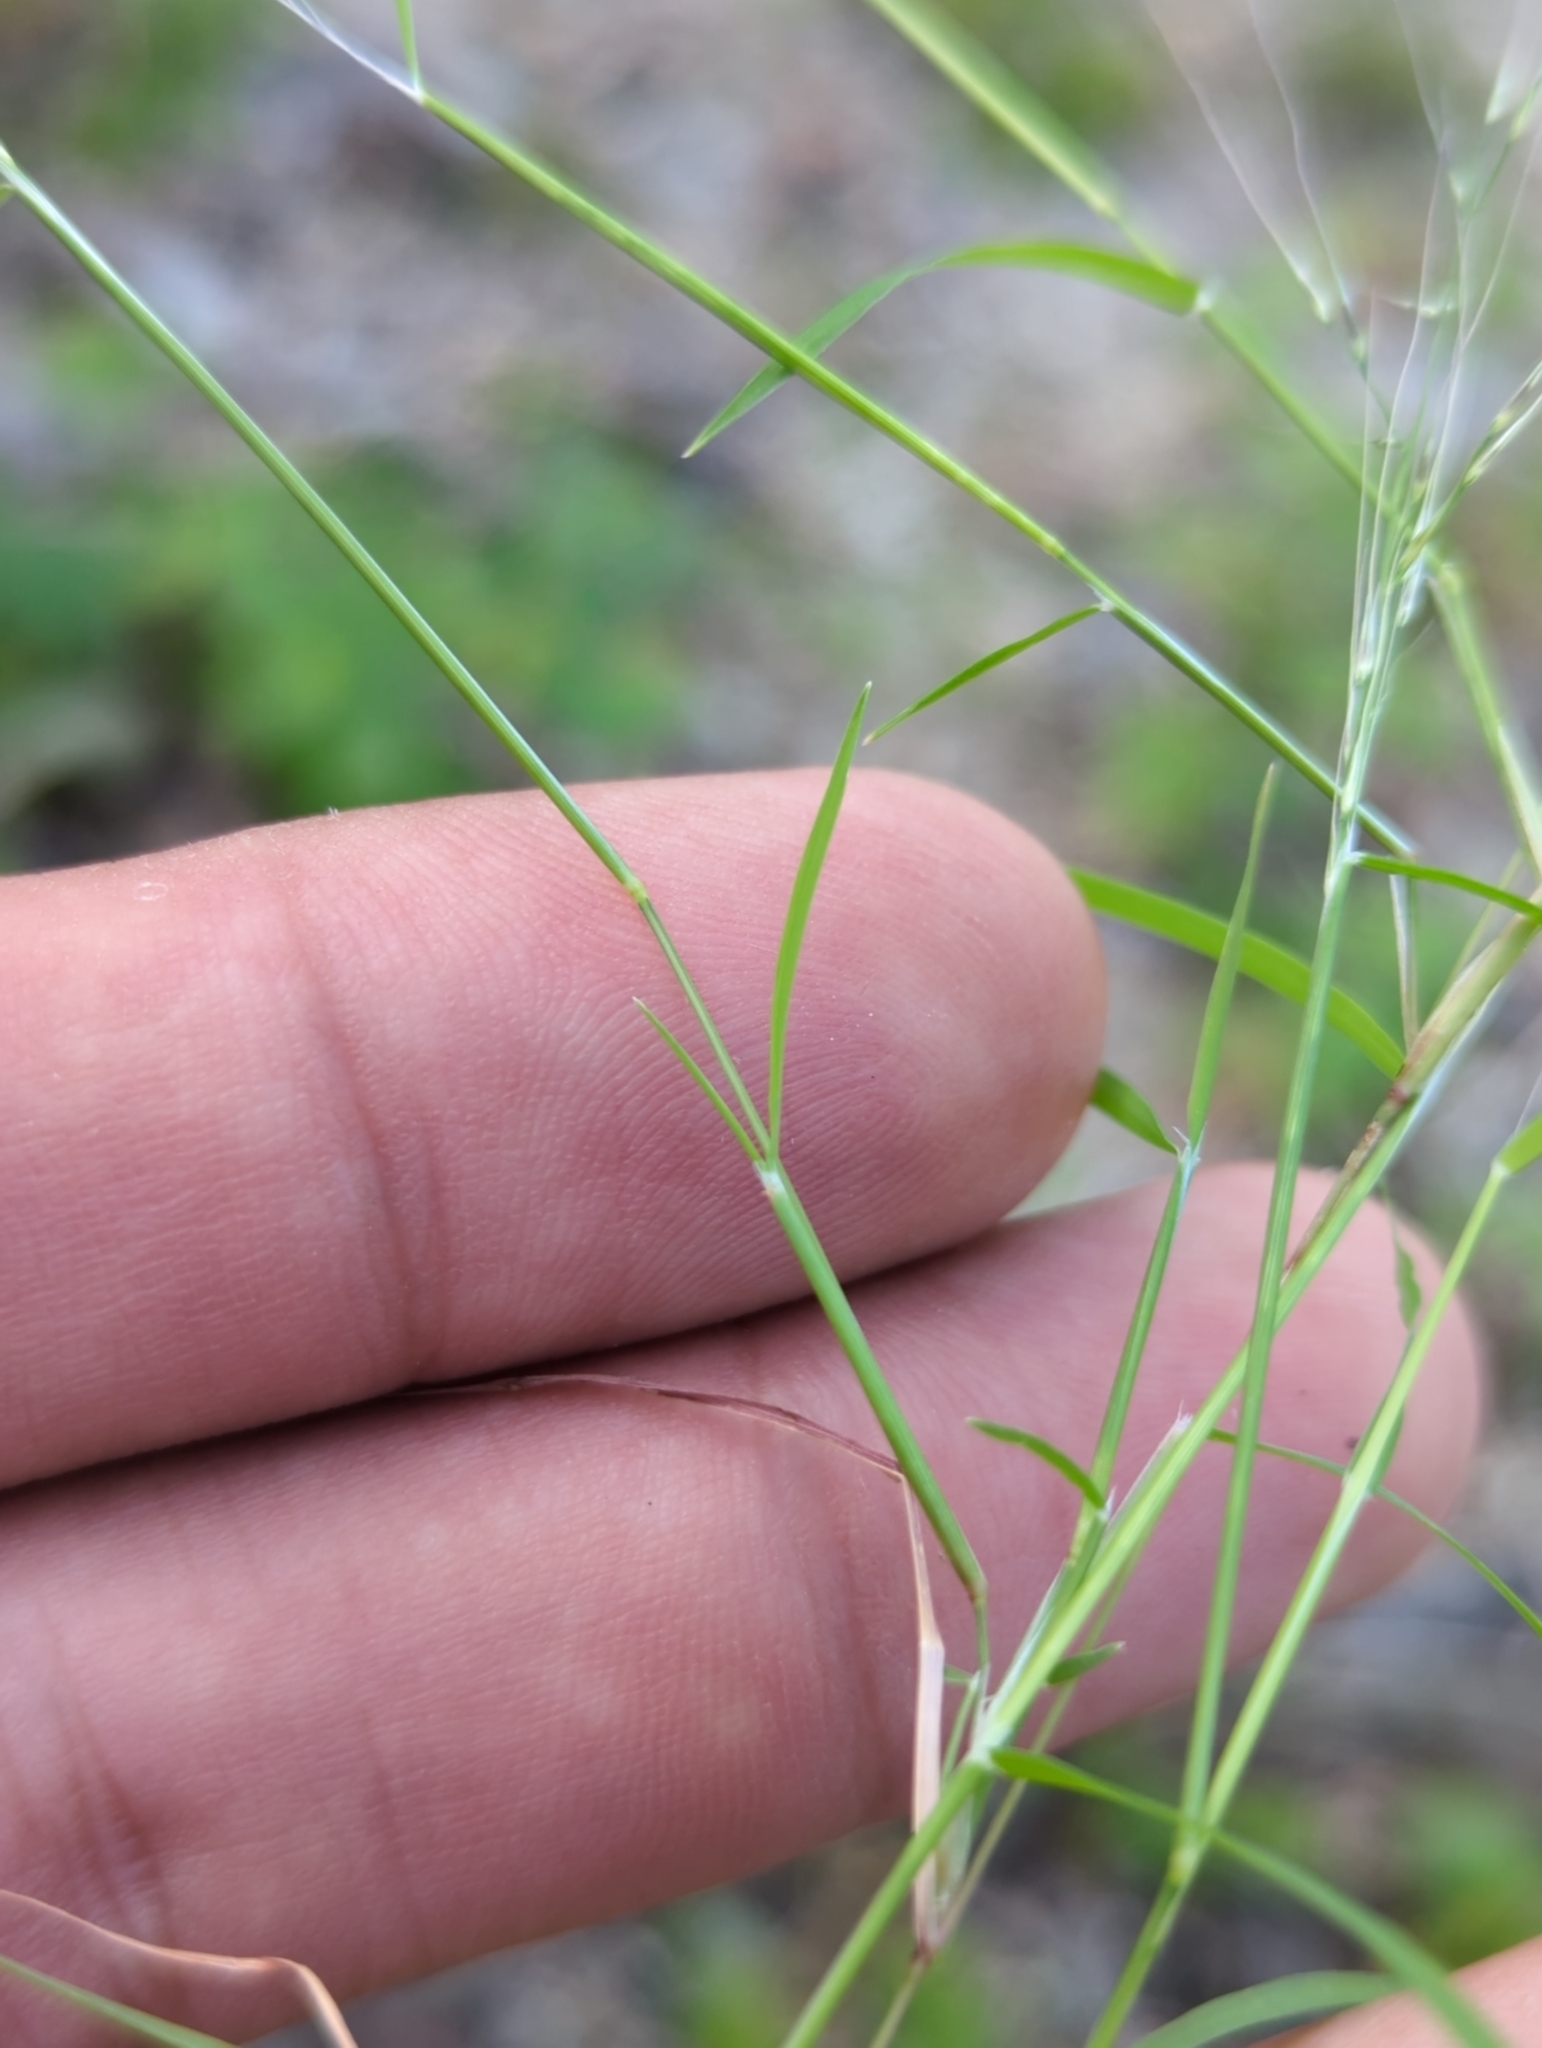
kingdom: Plantae
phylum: Tracheophyta
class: Liliopsida
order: Poales
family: Poaceae
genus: Muhlenbergia
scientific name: Muhlenbergia microsperma
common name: Littleseed muhly
